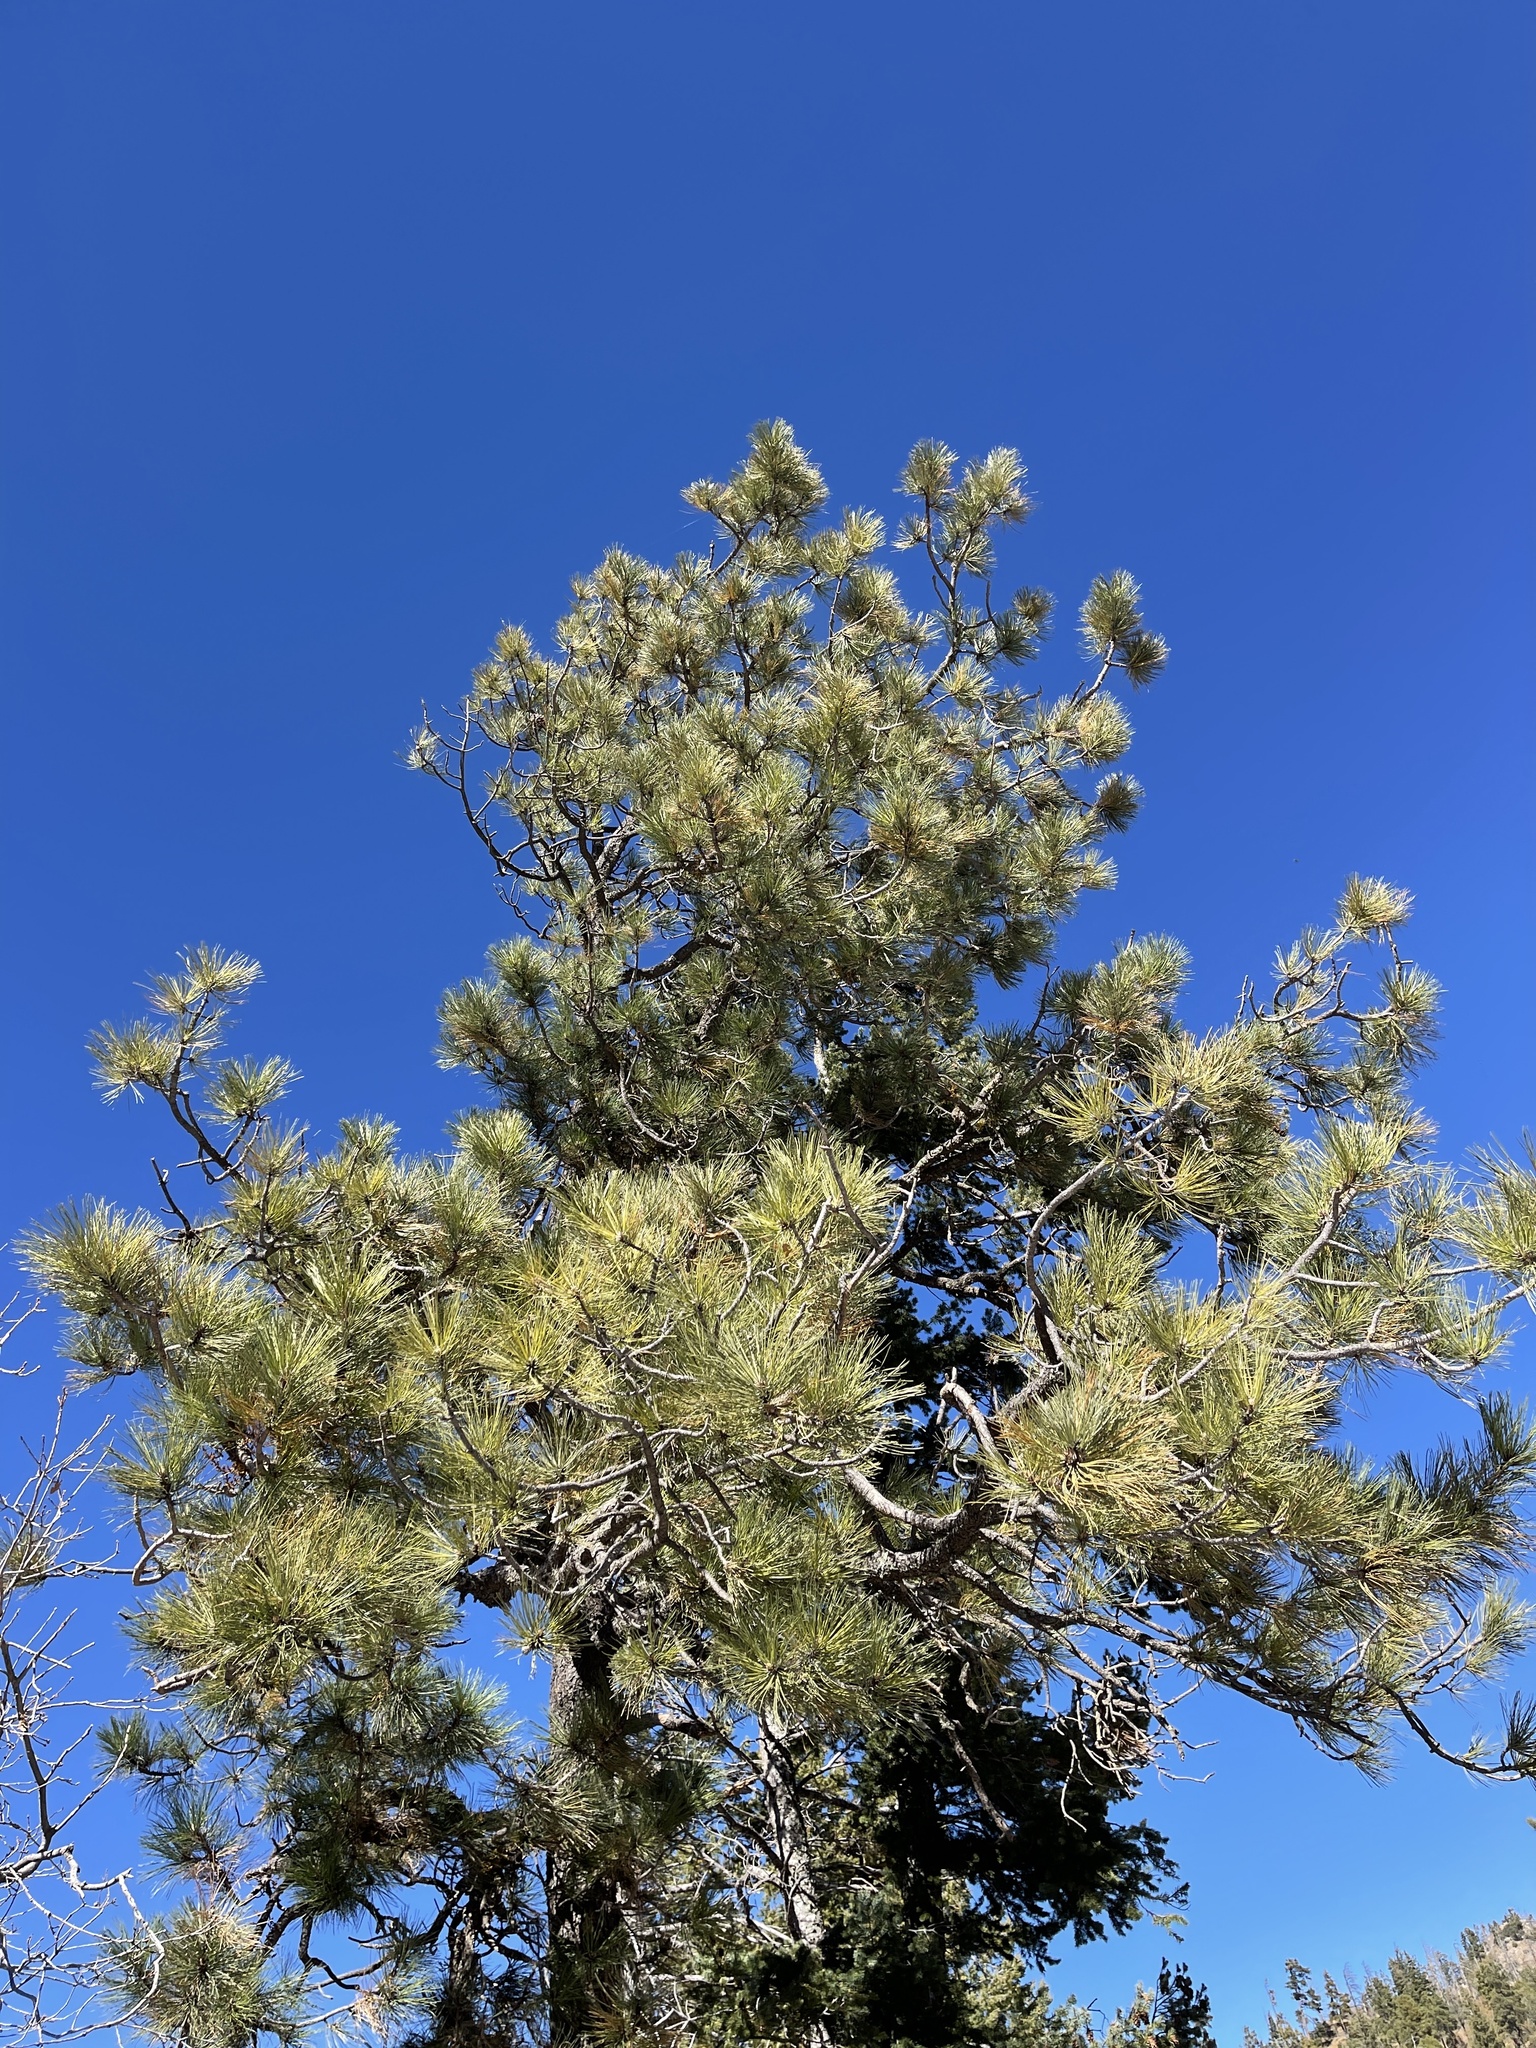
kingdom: Plantae
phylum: Tracheophyta
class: Pinopsida
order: Pinales
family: Pinaceae
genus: Pinus
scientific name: Pinus ponderosa
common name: Western yellow-pine
